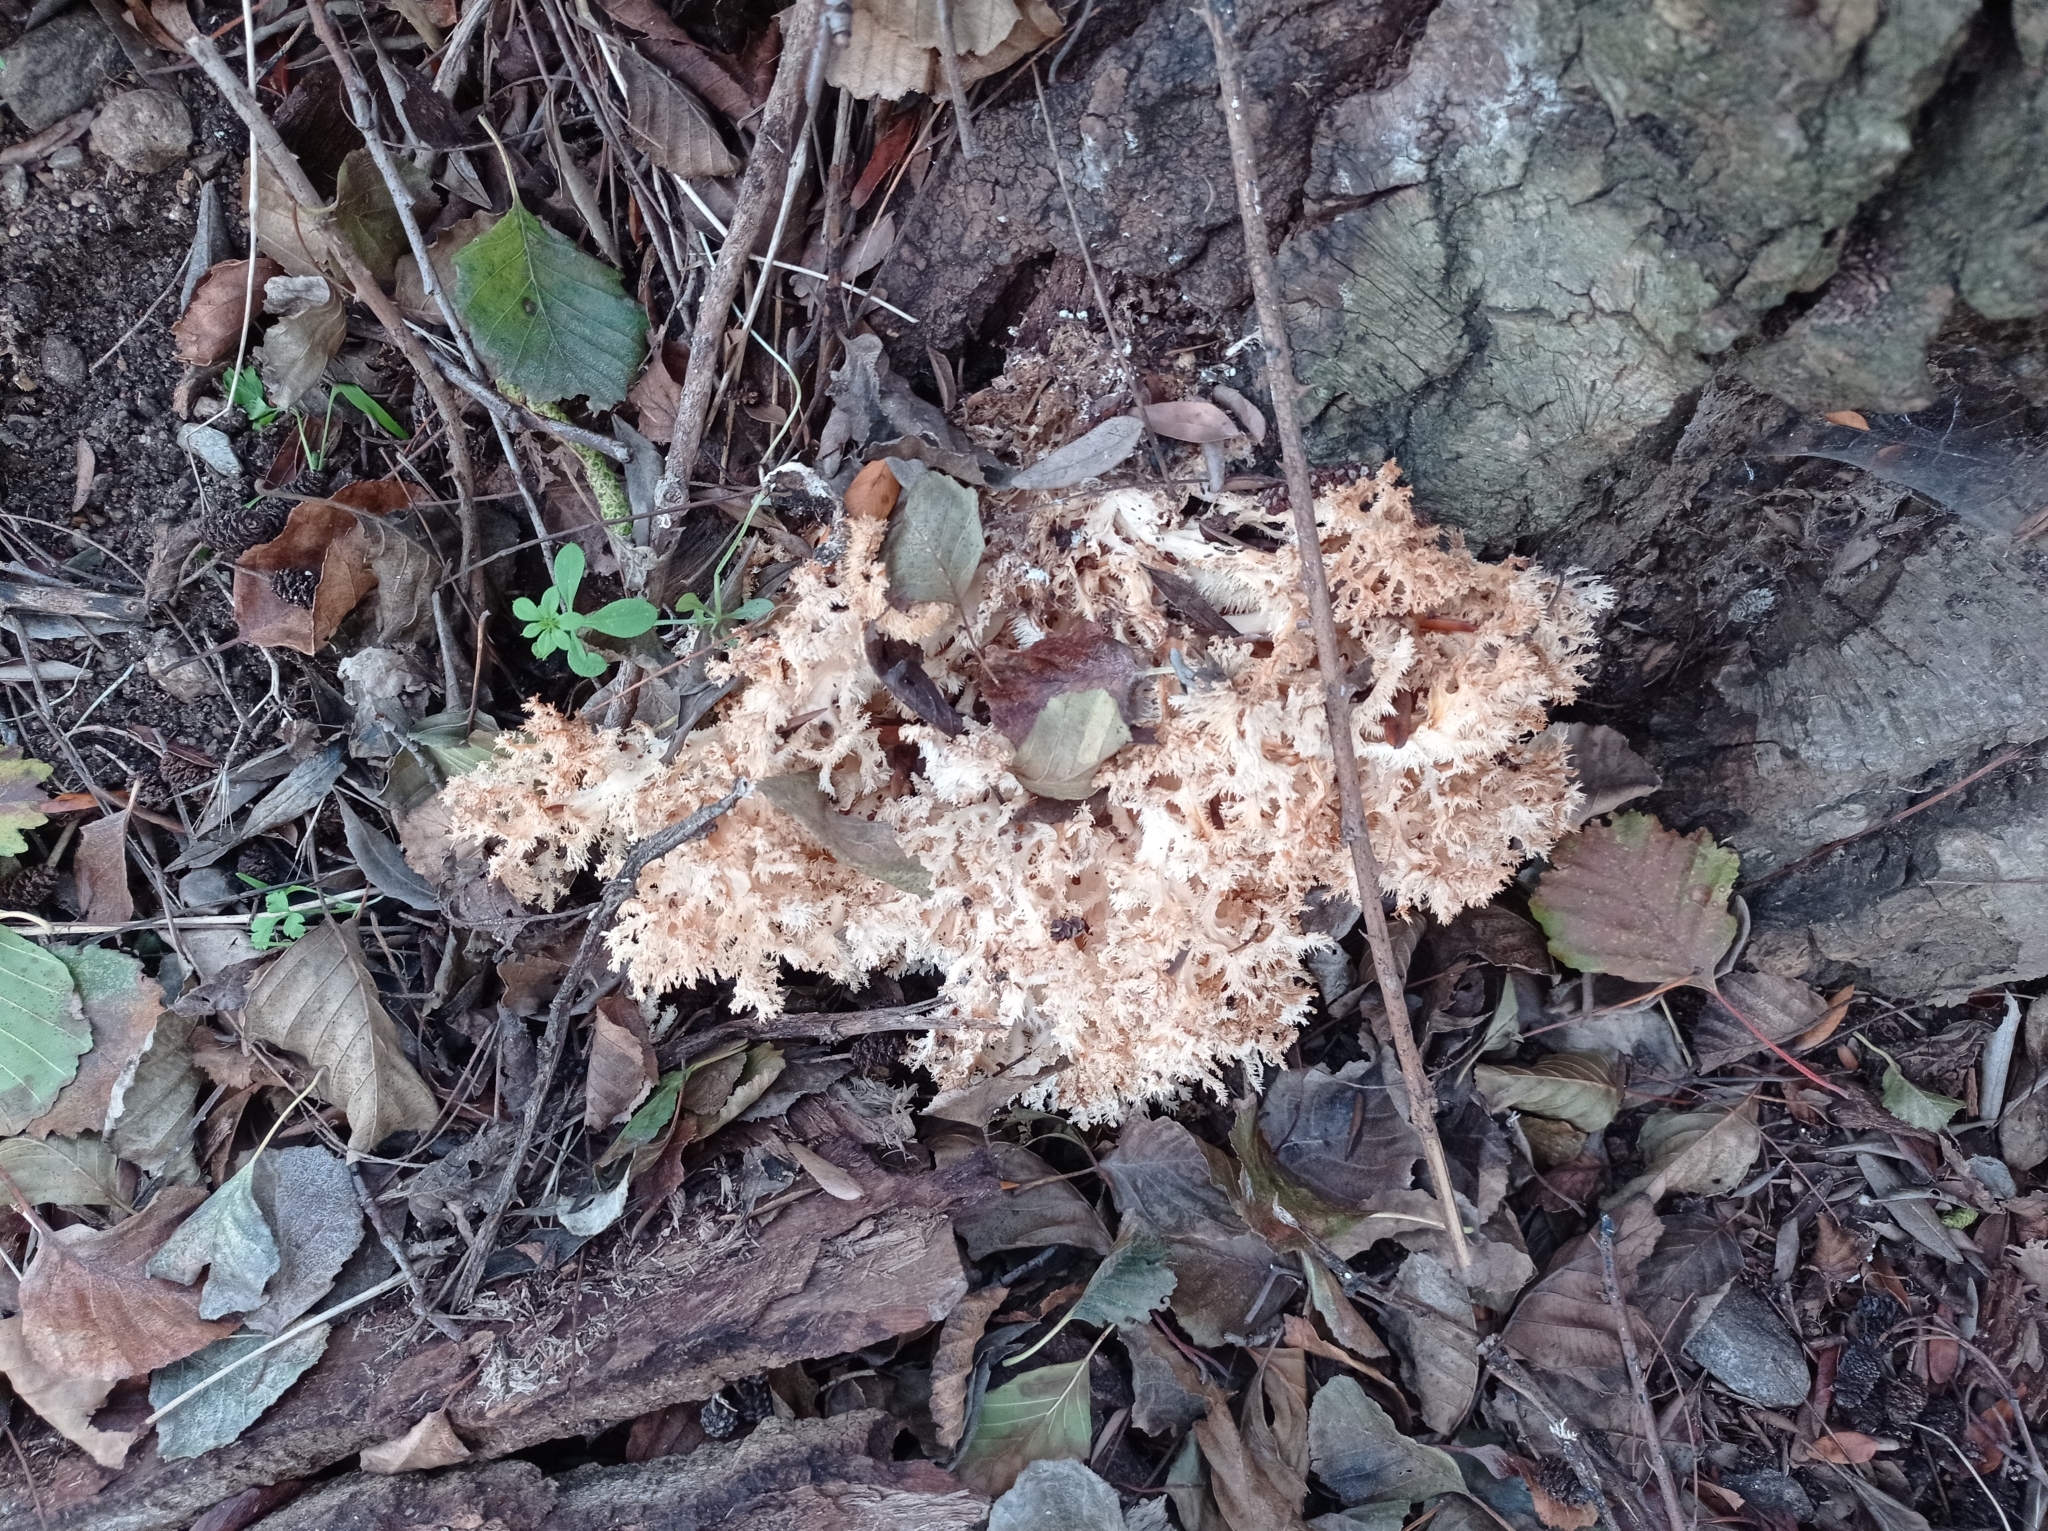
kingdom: Fungi
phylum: Basidiomycota
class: Agaricomycetes
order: Russulales
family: Hericiaceae
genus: Hericium
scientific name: Hericium coralloides
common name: Coral tooth
